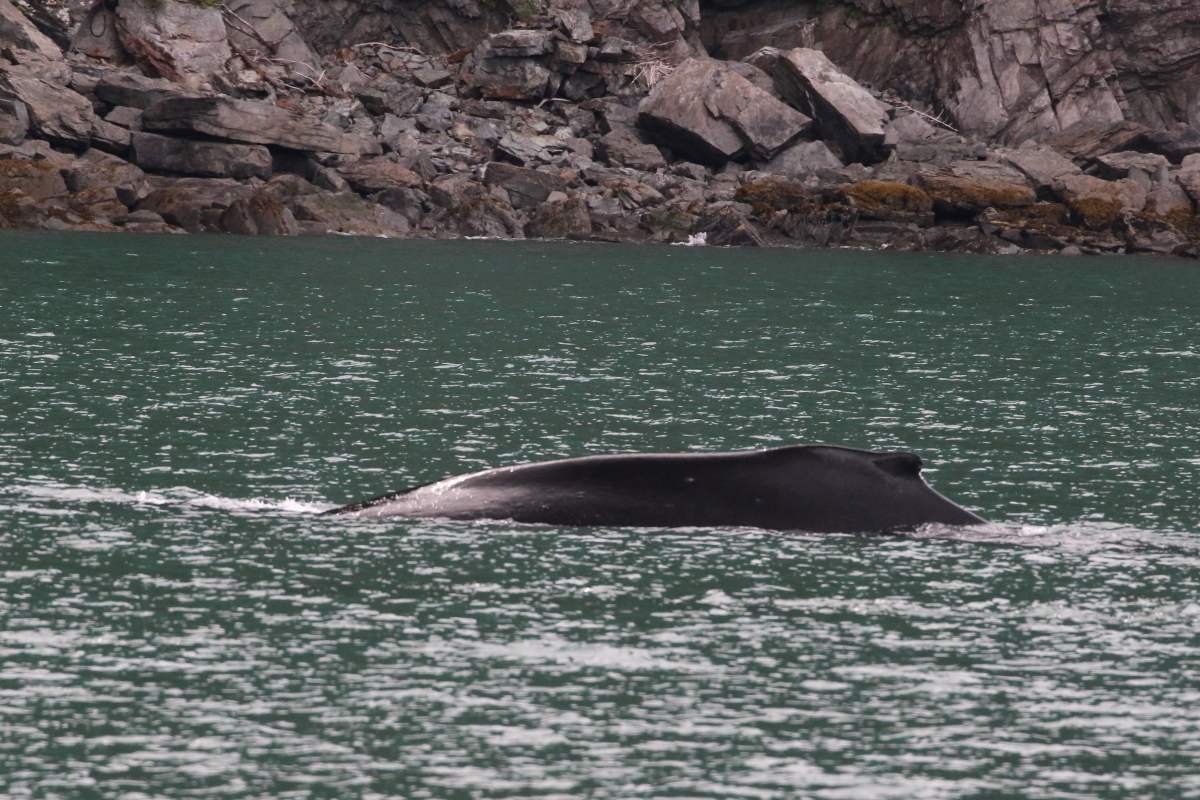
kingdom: Animalia
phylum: Chordata
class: Mammalia
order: Cetacea
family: Balaenopteridae
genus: Megaptera
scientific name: Megaptera novaeangliae
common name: Humpback whale
